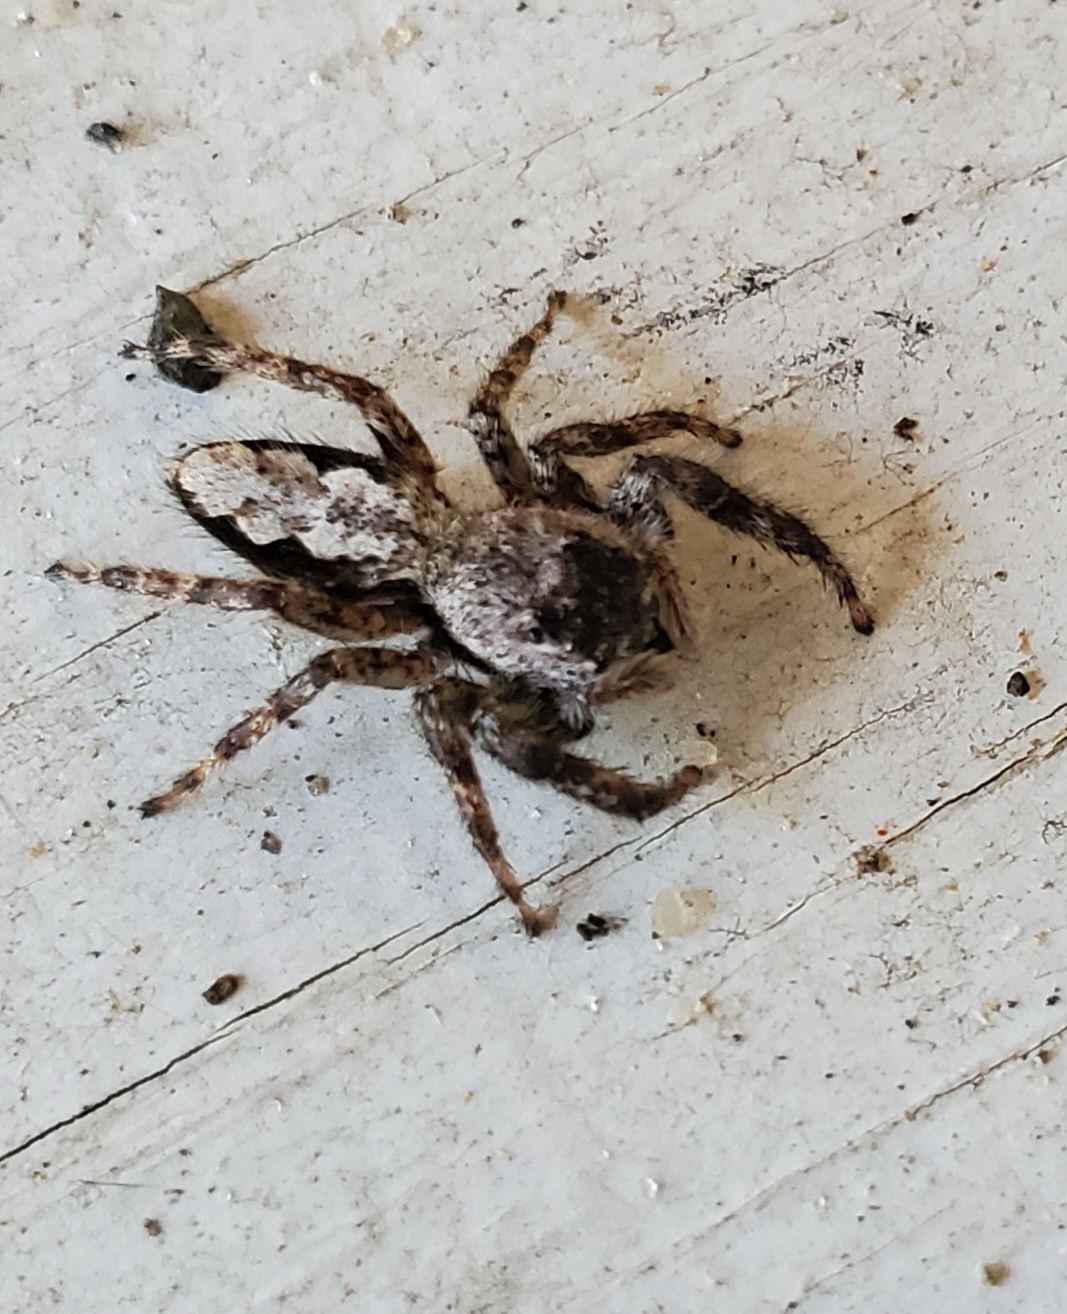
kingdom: Animalia
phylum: Arthropoda
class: Arachnida
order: Araneae
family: Salticidae
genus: Platycryptus
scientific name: Platycryptus undatus
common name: Tan jumping spider
